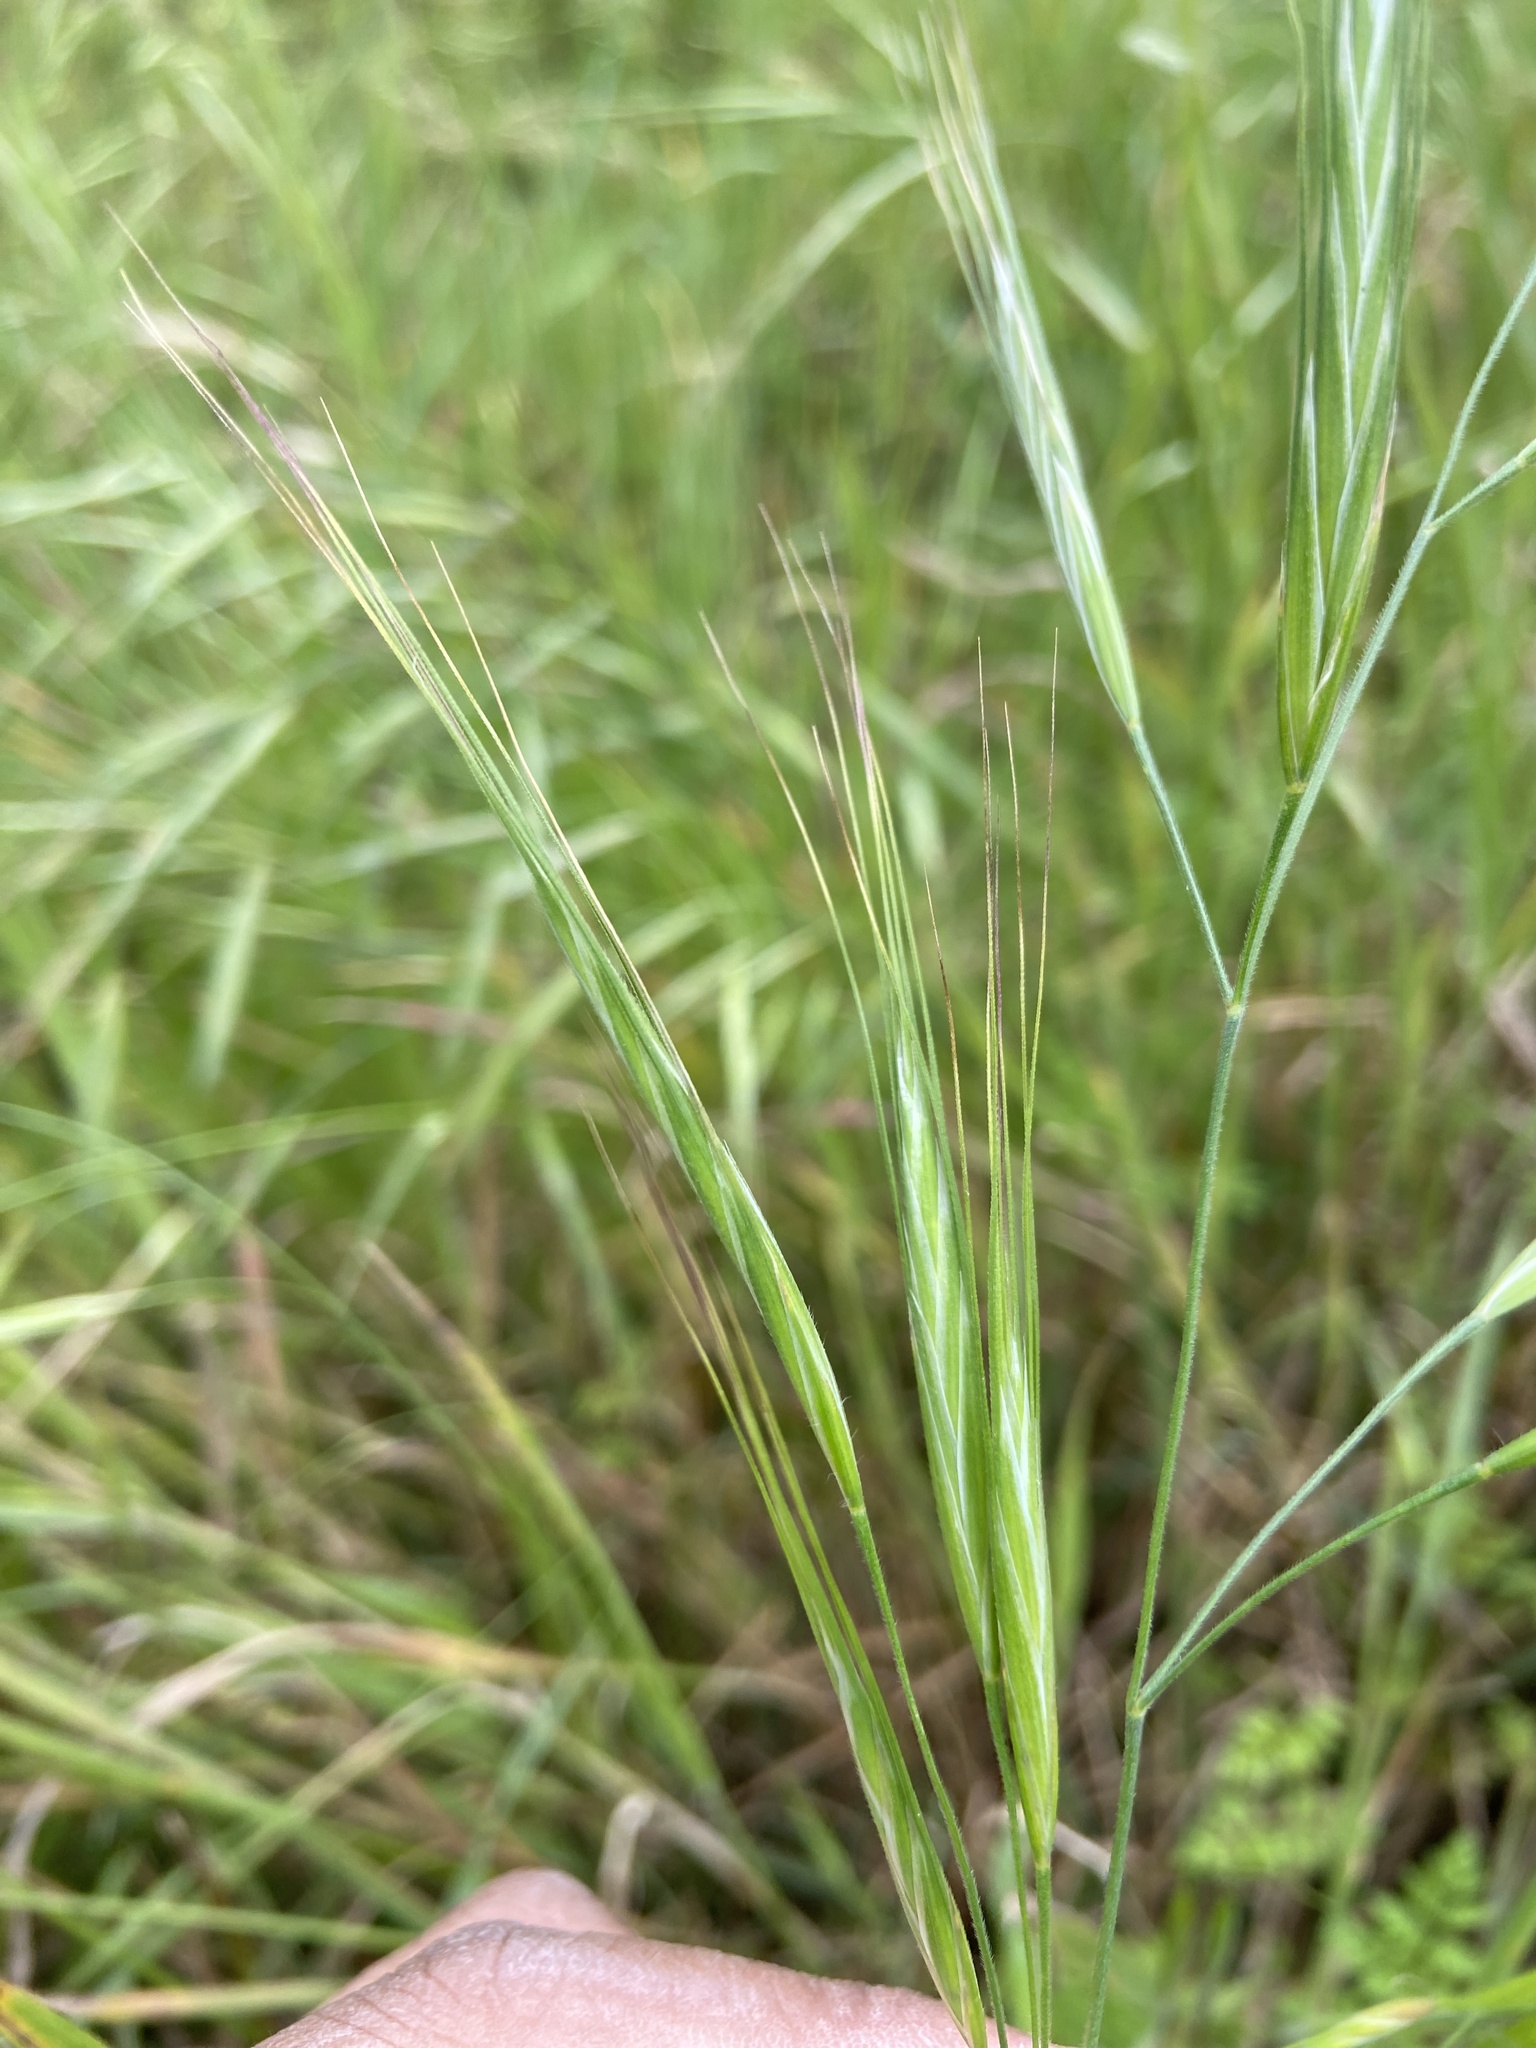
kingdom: Plantae
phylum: Tracheophyta
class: Liliopsida
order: Poales
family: Poaceae
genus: Bromus
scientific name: Bromus diandrus
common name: Ripgut brome
